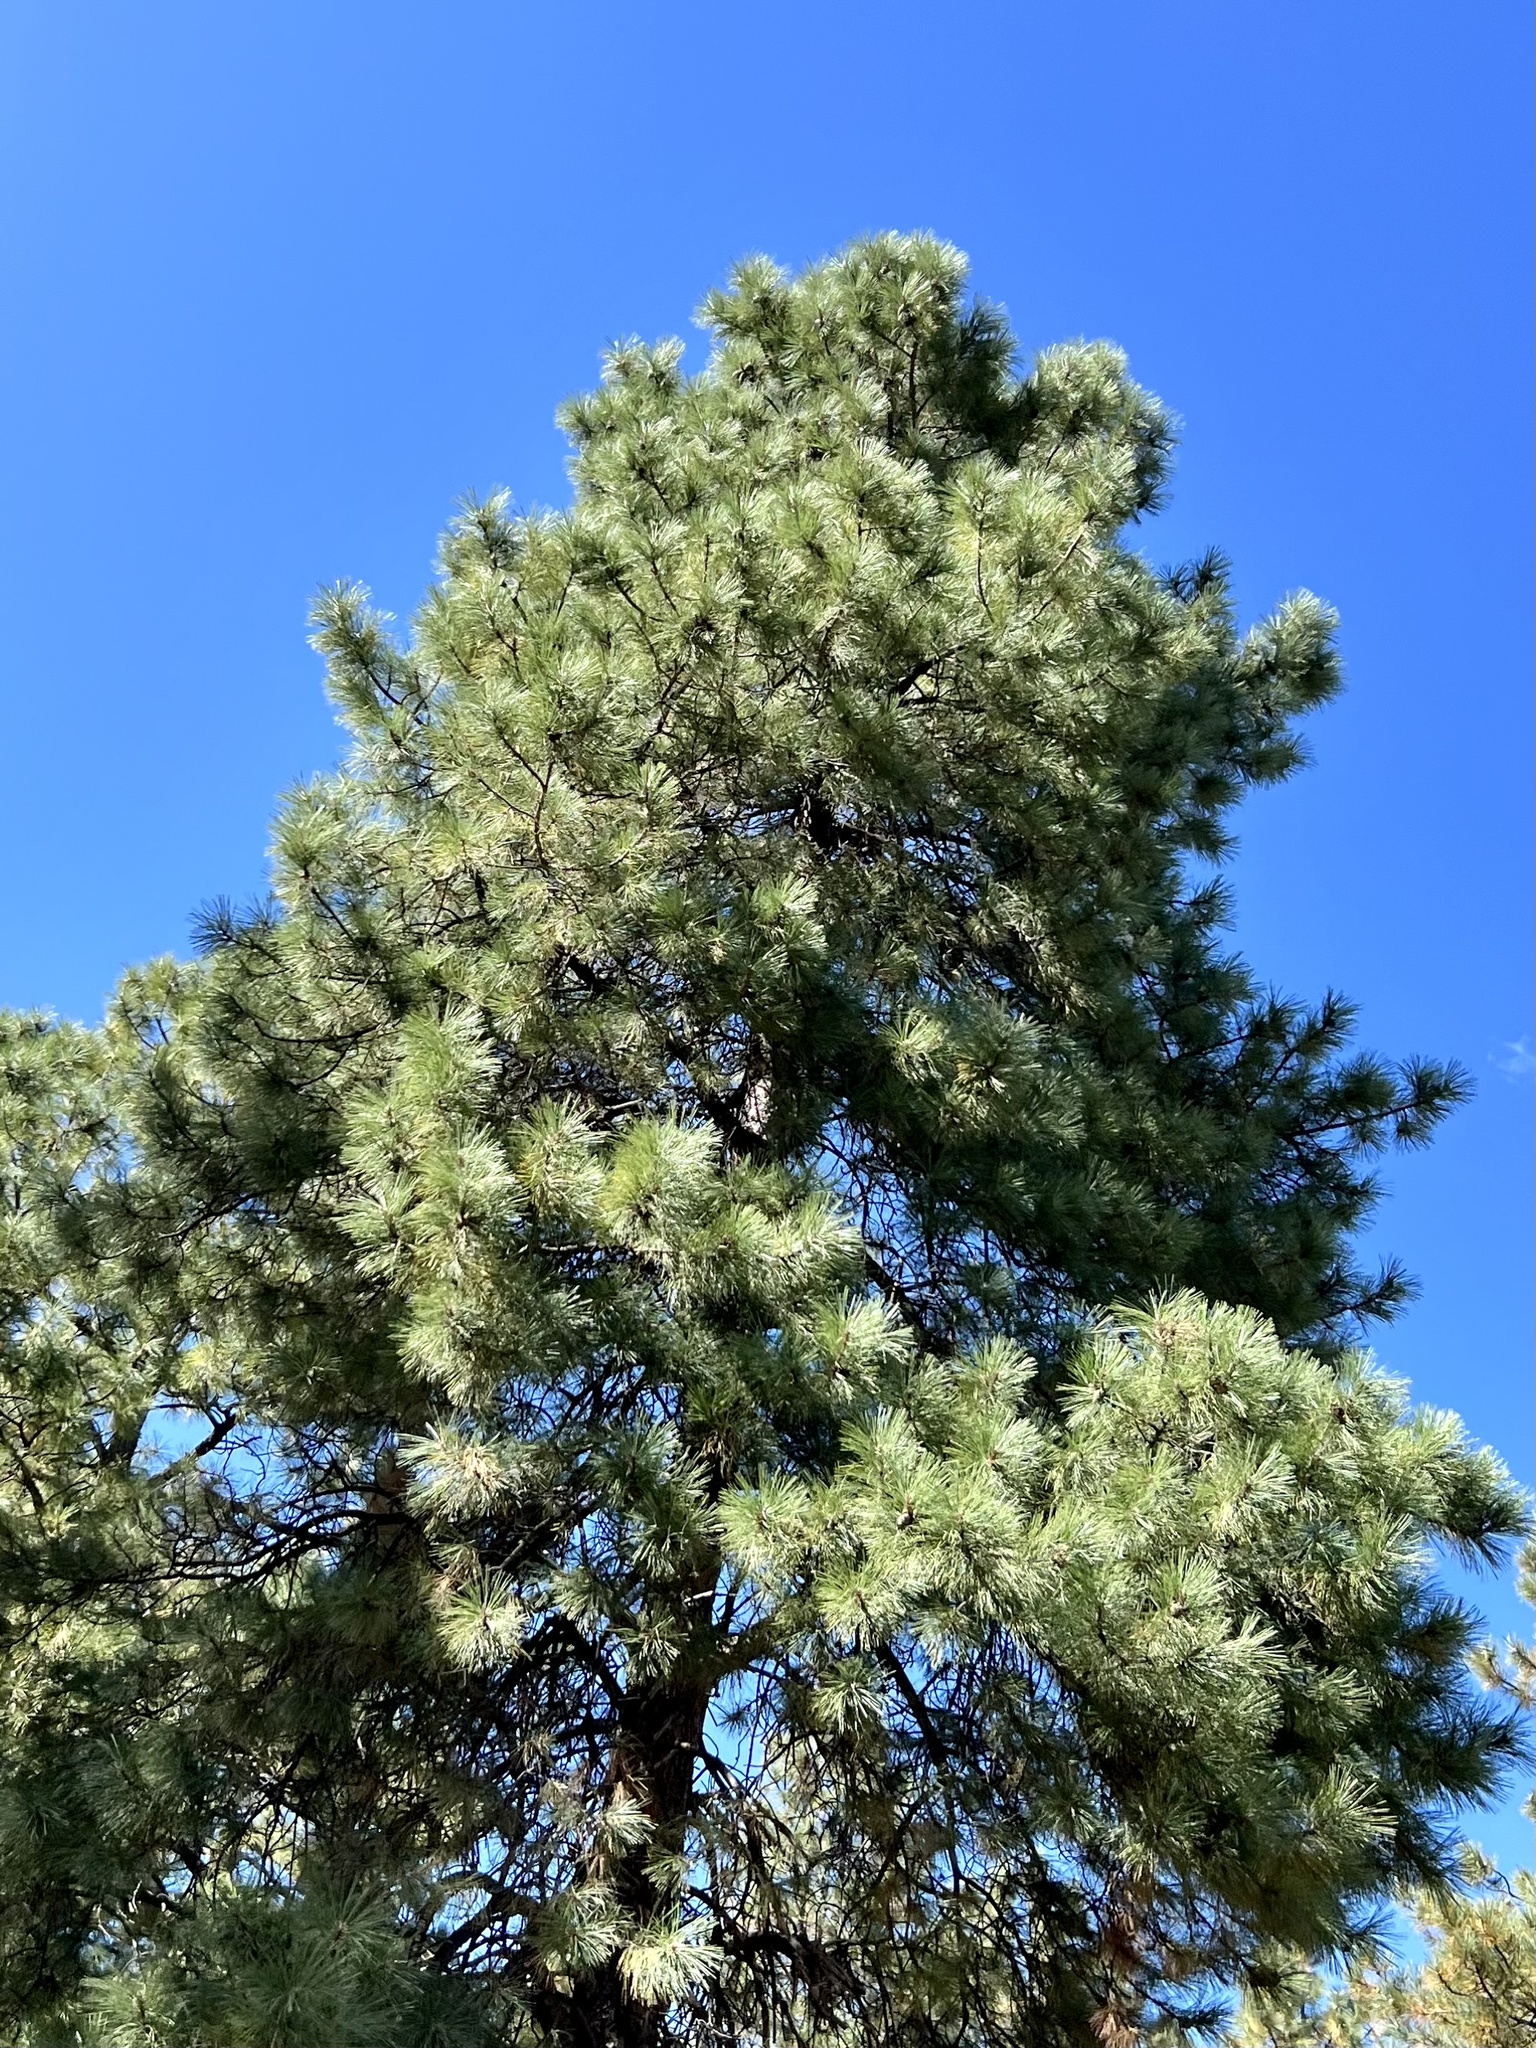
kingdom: Plantae
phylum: Tracheophyta
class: Pinopsida
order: Pinales
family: Pinaceae
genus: Pinus
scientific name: Pinus ponderosa
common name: Western yellow-pine
